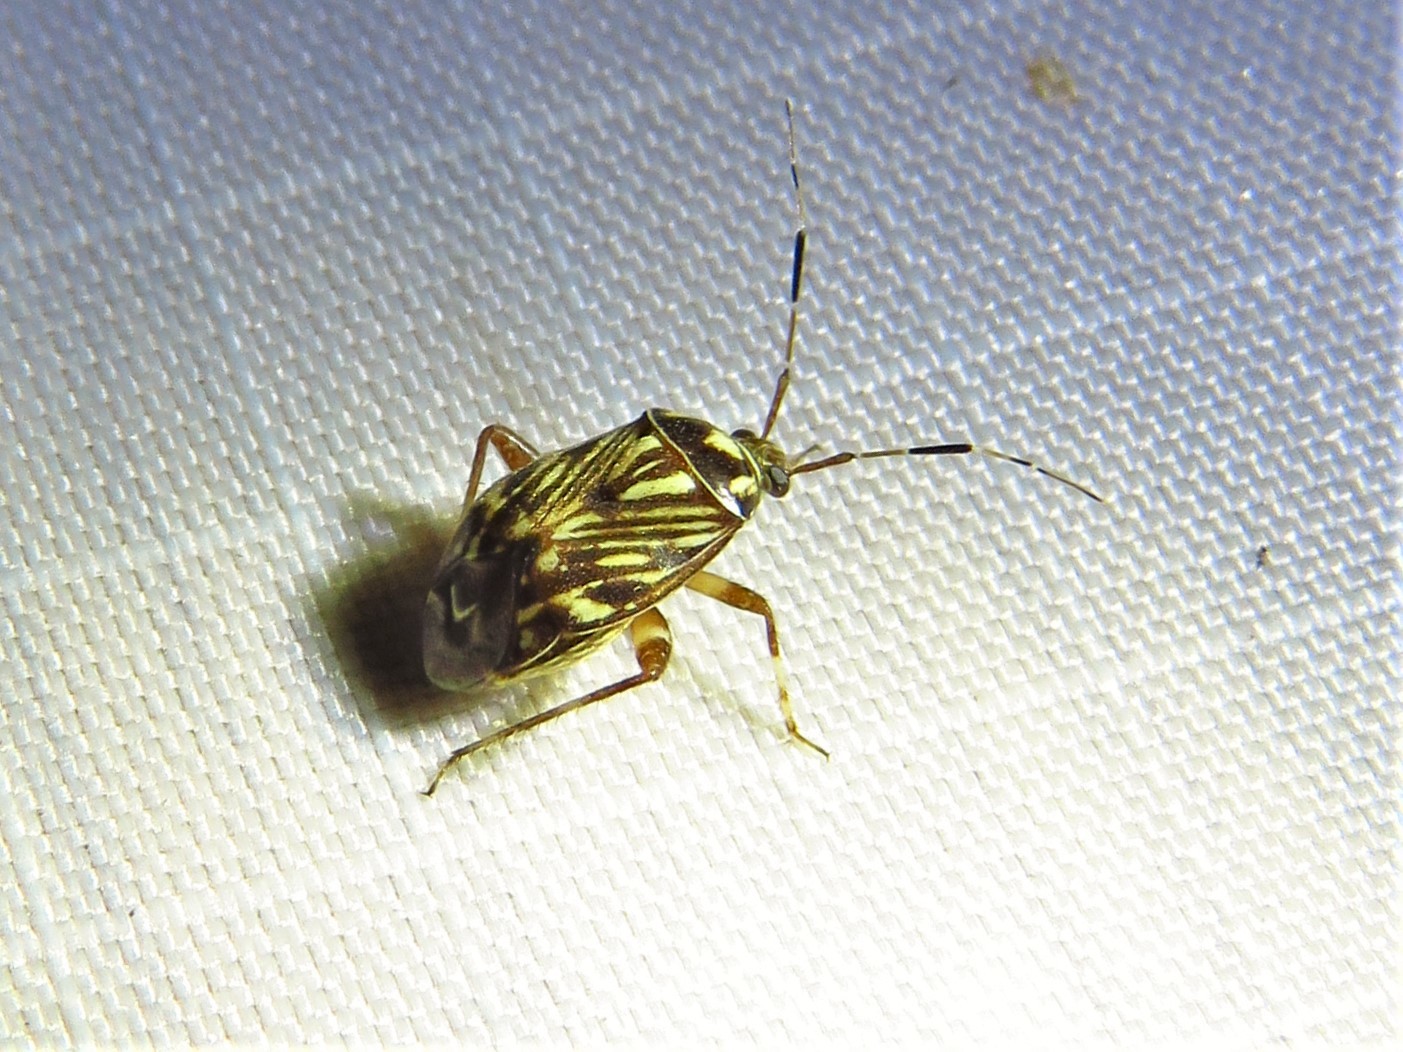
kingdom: Animalia
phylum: Arthropoda
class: Insecta
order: Hemiptera
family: Miridae
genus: Taedia
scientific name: Taedia virgulata
